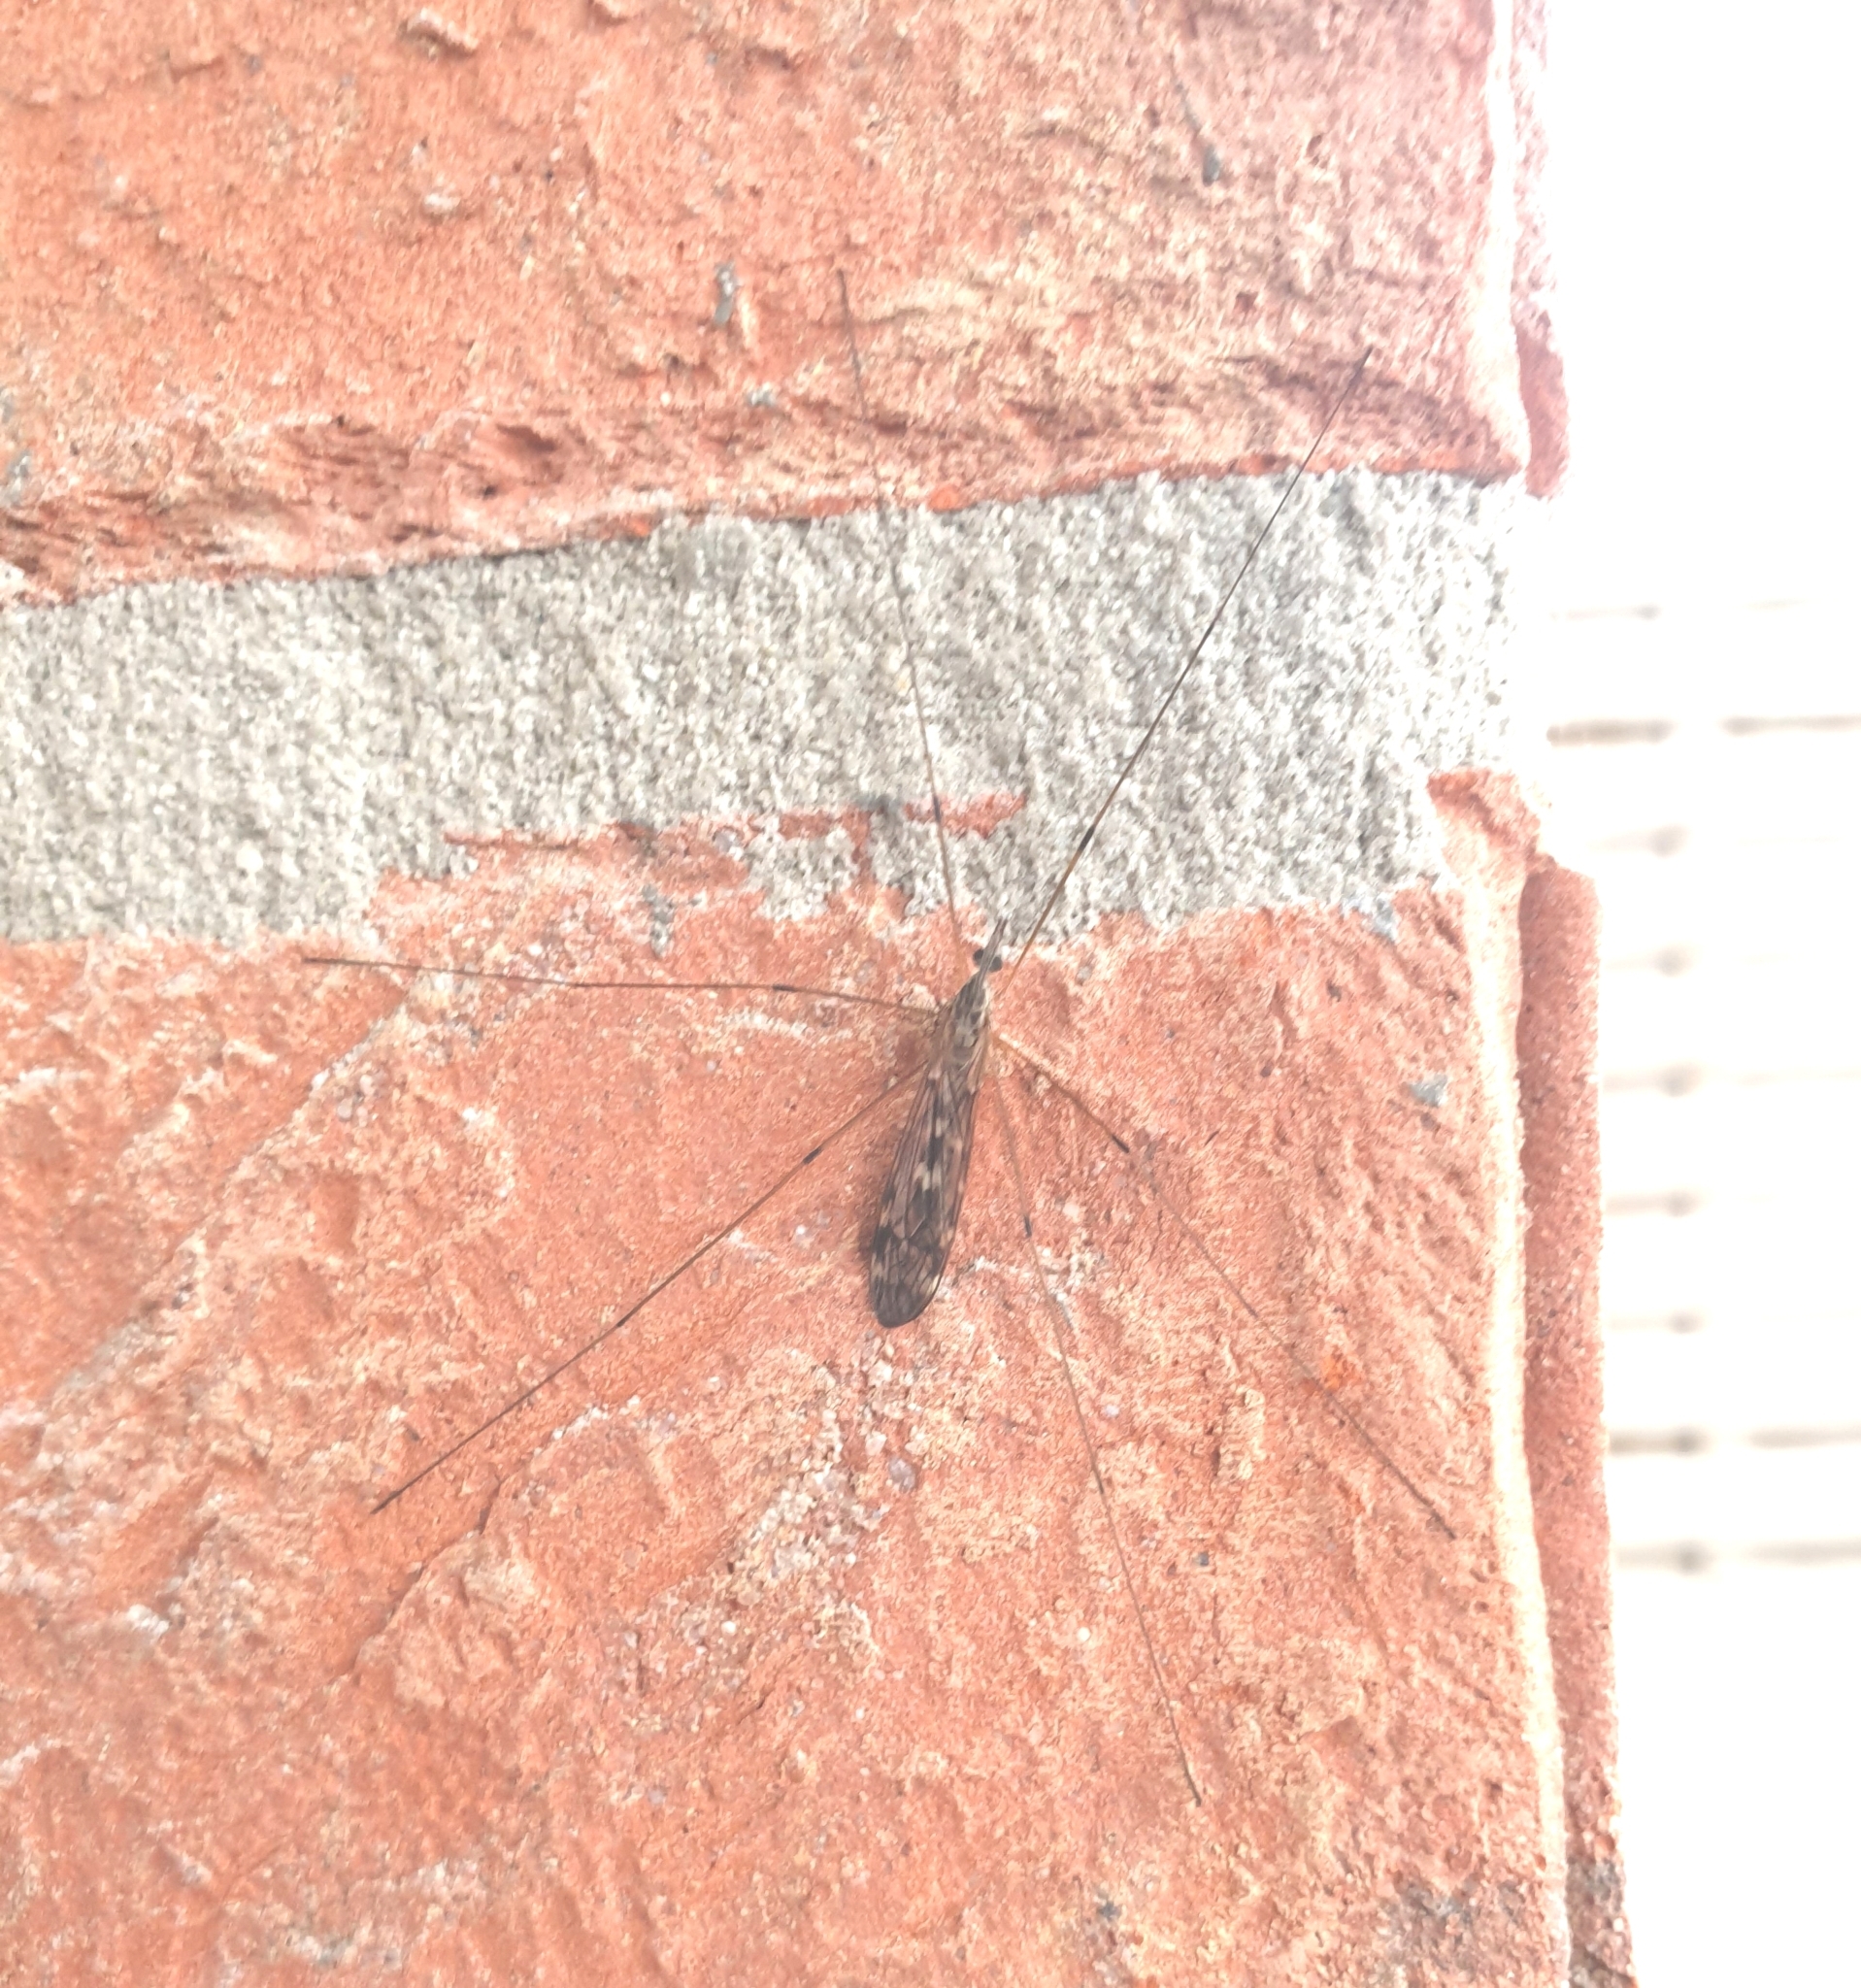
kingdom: Animalia
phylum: Arthropoda
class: Insecta
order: Diptera
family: Tipulidae
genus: Tipula
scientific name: Tipula confusa
